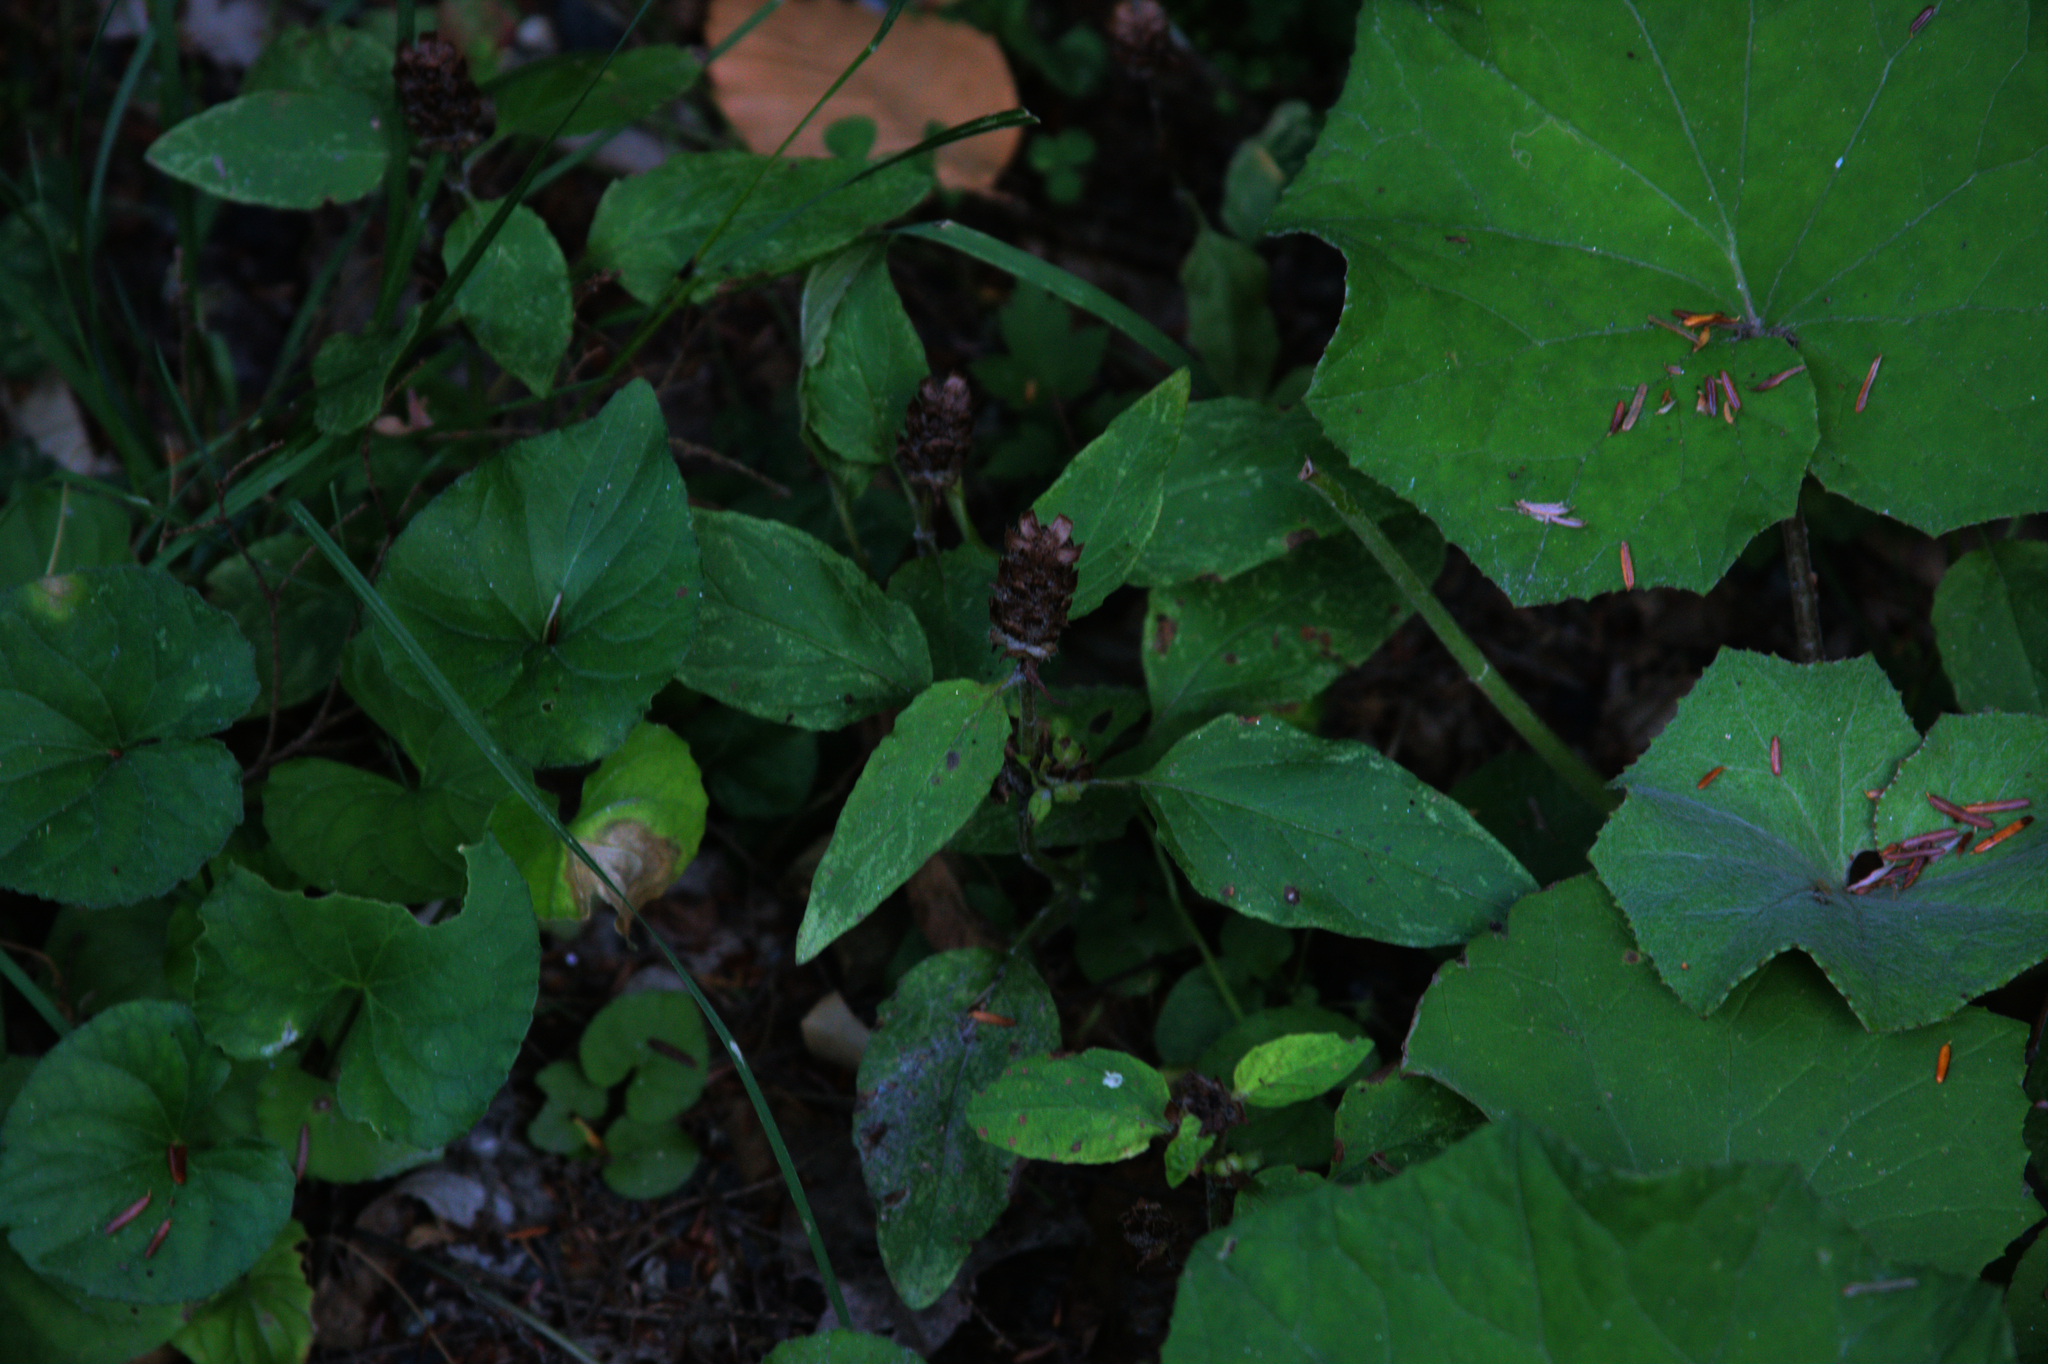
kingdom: Plantae
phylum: Tracheophyta
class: Magnoliopsida
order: Lamiales
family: Lamiaceae
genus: Prunella
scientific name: Prunella vulgaris
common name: Heal-all
